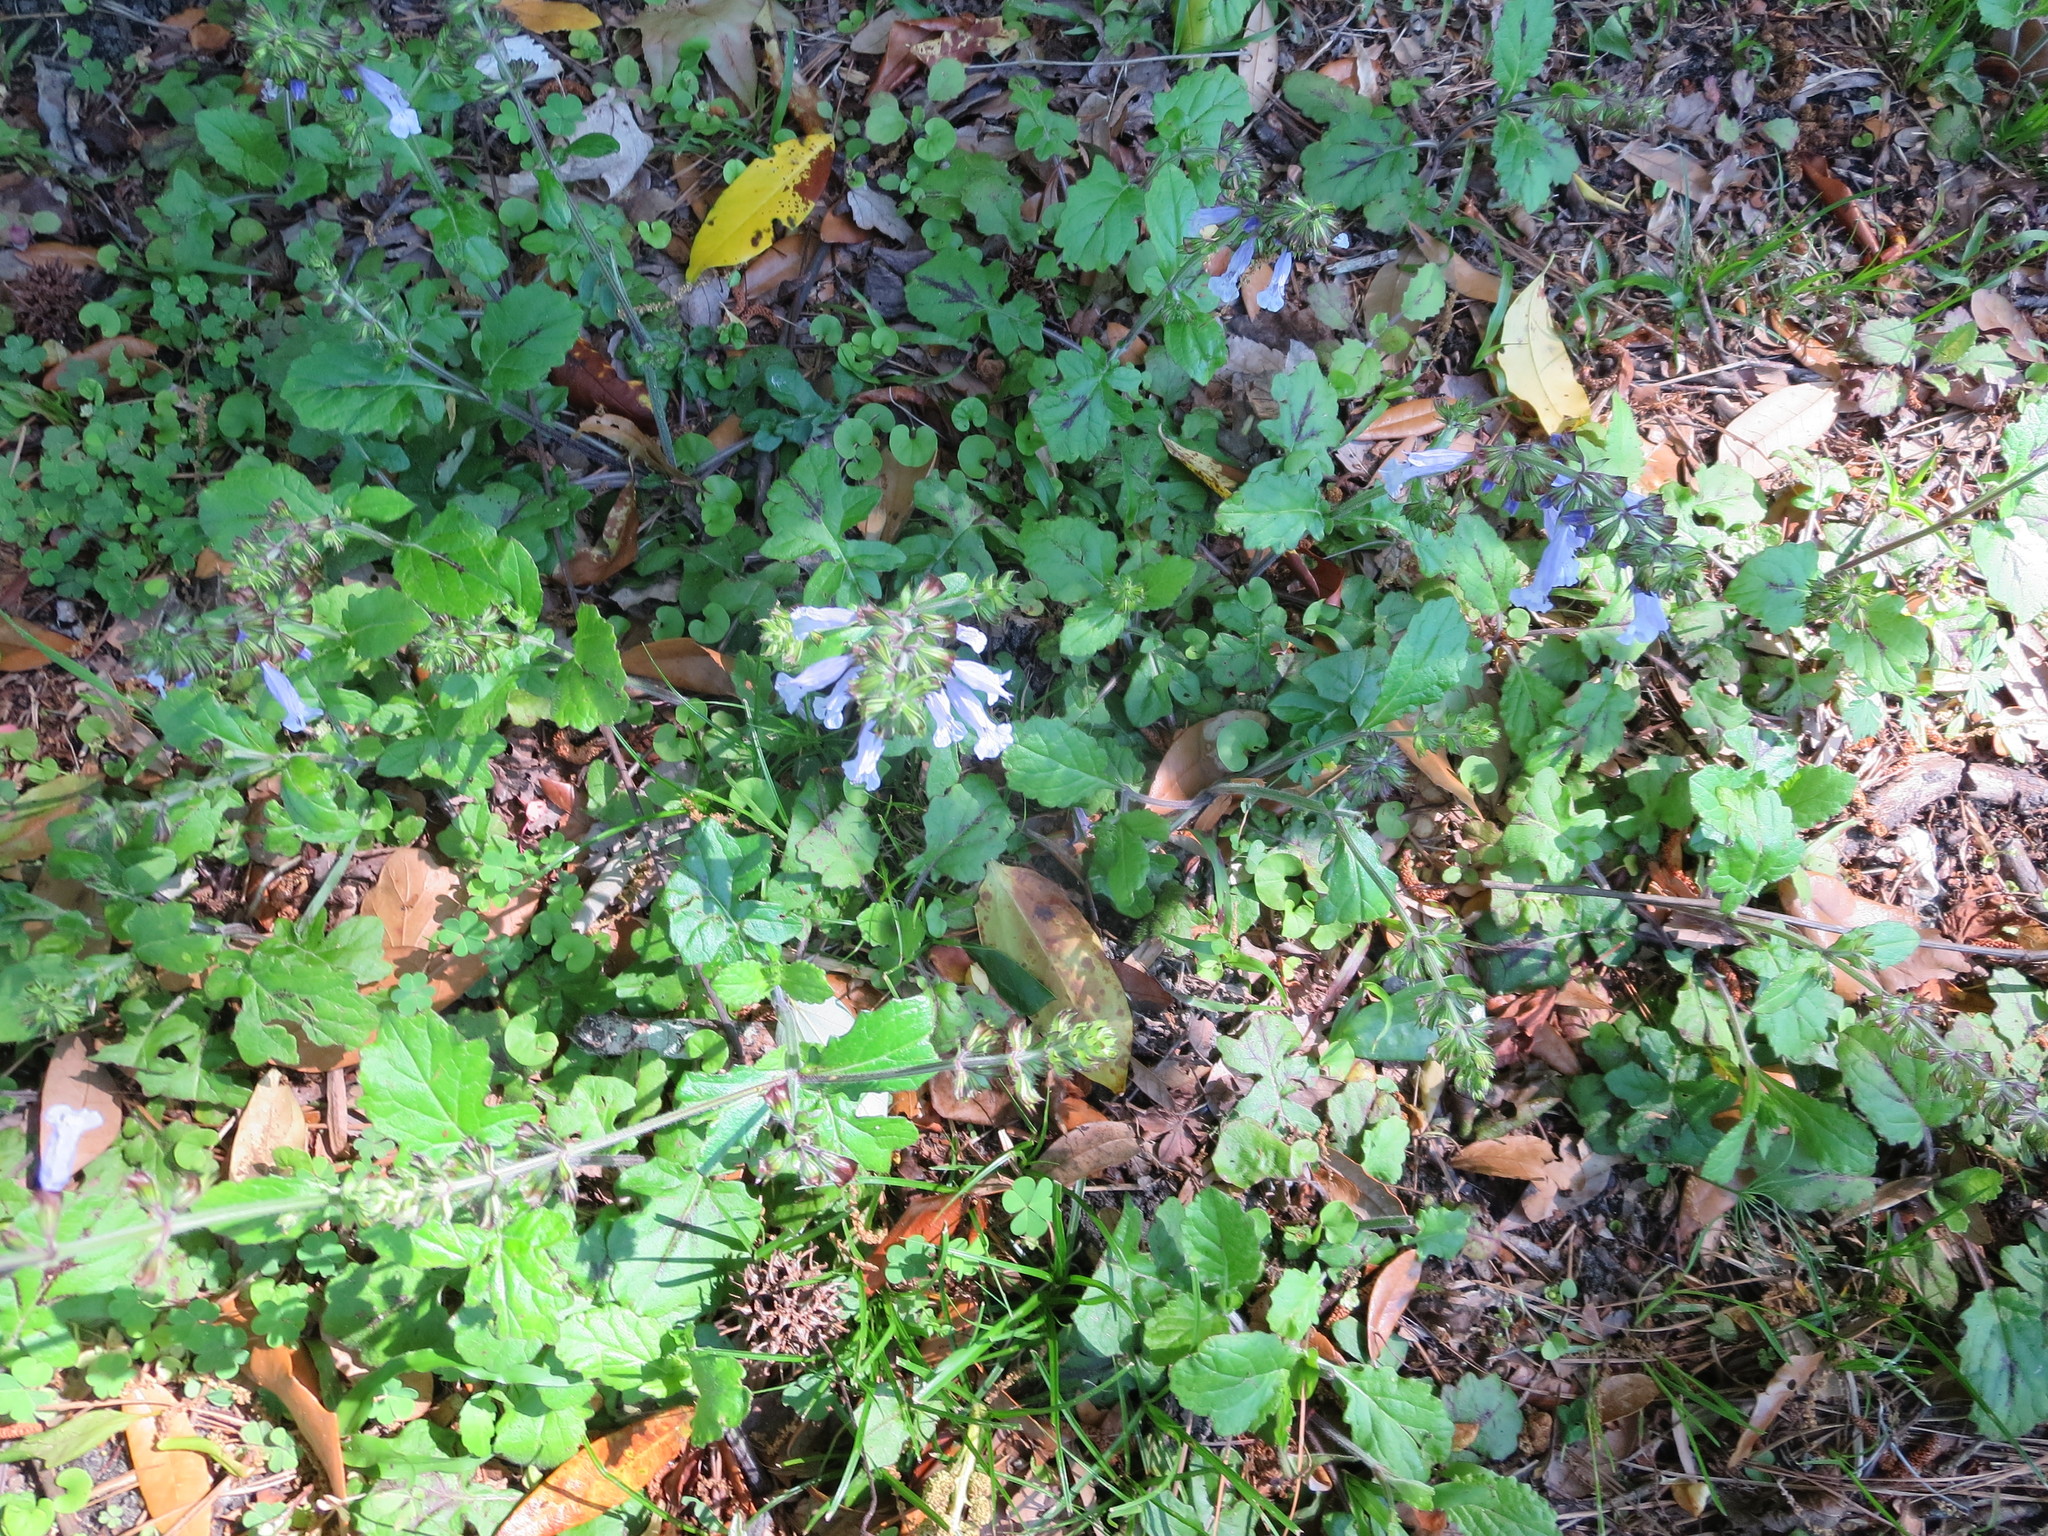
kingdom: Plantae
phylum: Tracheophyta
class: Magnoliopsida
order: Lamiales
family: Lamiaceae
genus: Salvia
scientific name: Salvia lyrata
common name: Cancerweed
